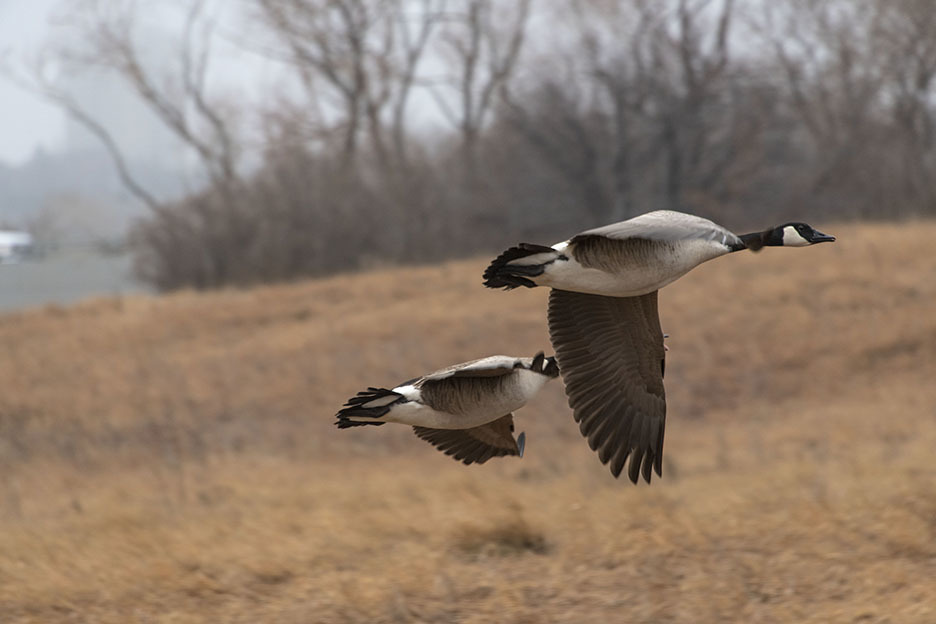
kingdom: Animalia
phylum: Chordata
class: Aves
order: Anseriformes
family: Anatidae
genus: Branta
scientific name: Branta canadensis
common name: Canada goose
